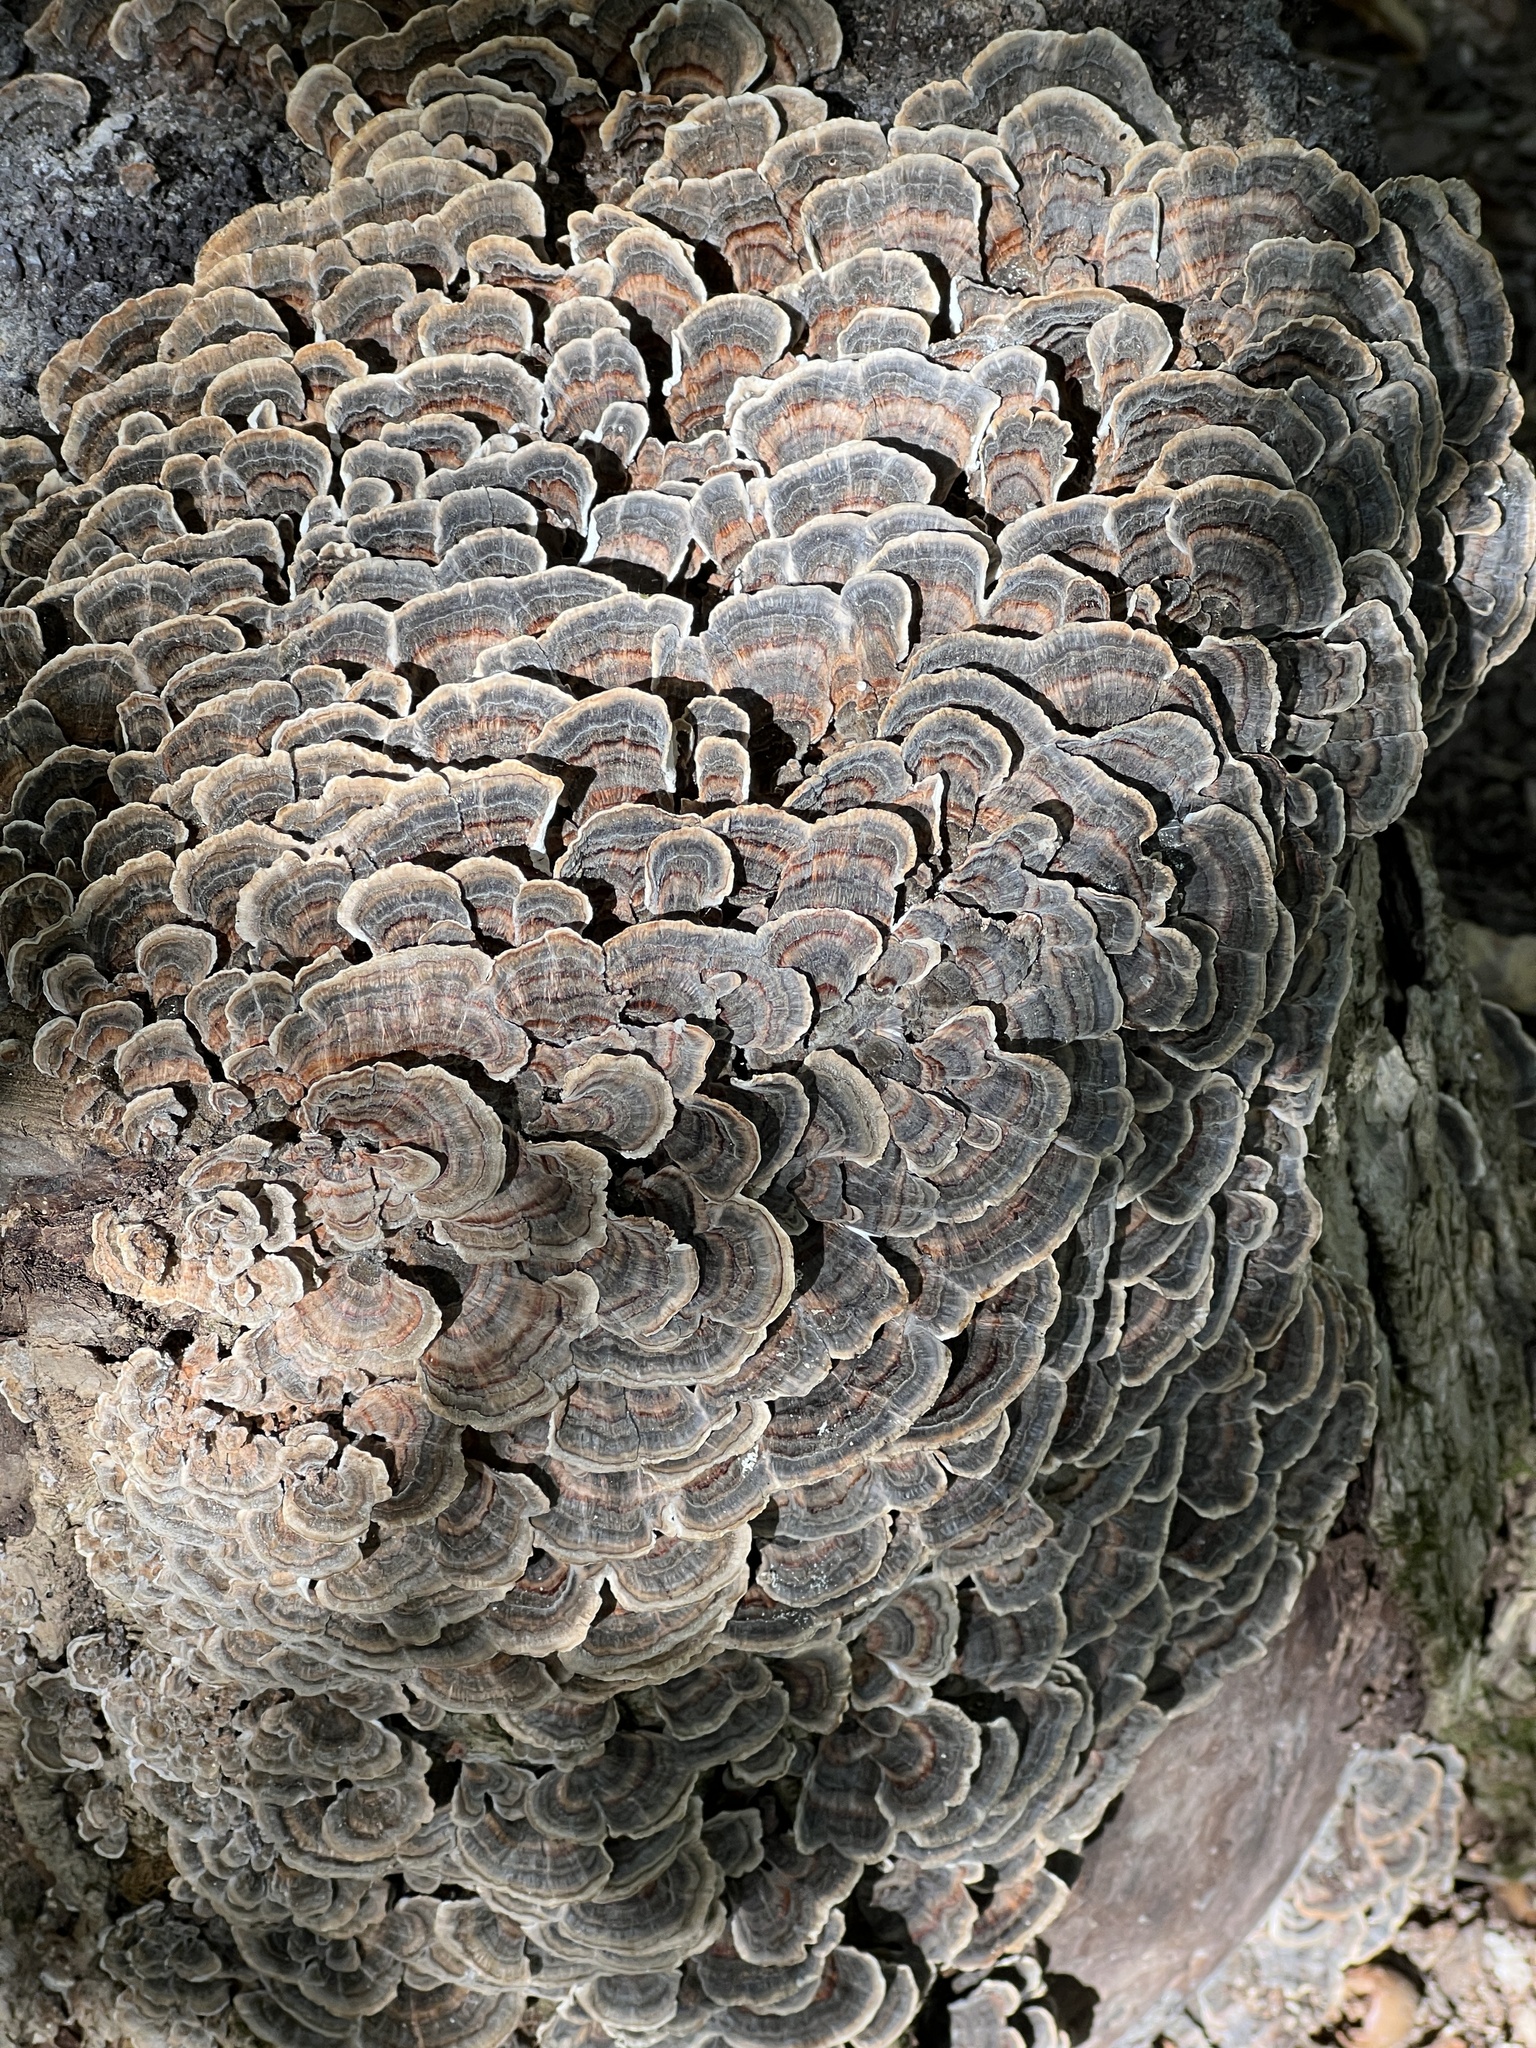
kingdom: Fungi
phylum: Basidiomycota
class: Agaricomycetes
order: Polyporales
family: Polyporaceae
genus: Trametes
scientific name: Trametes versicolor
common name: Turkeytail
